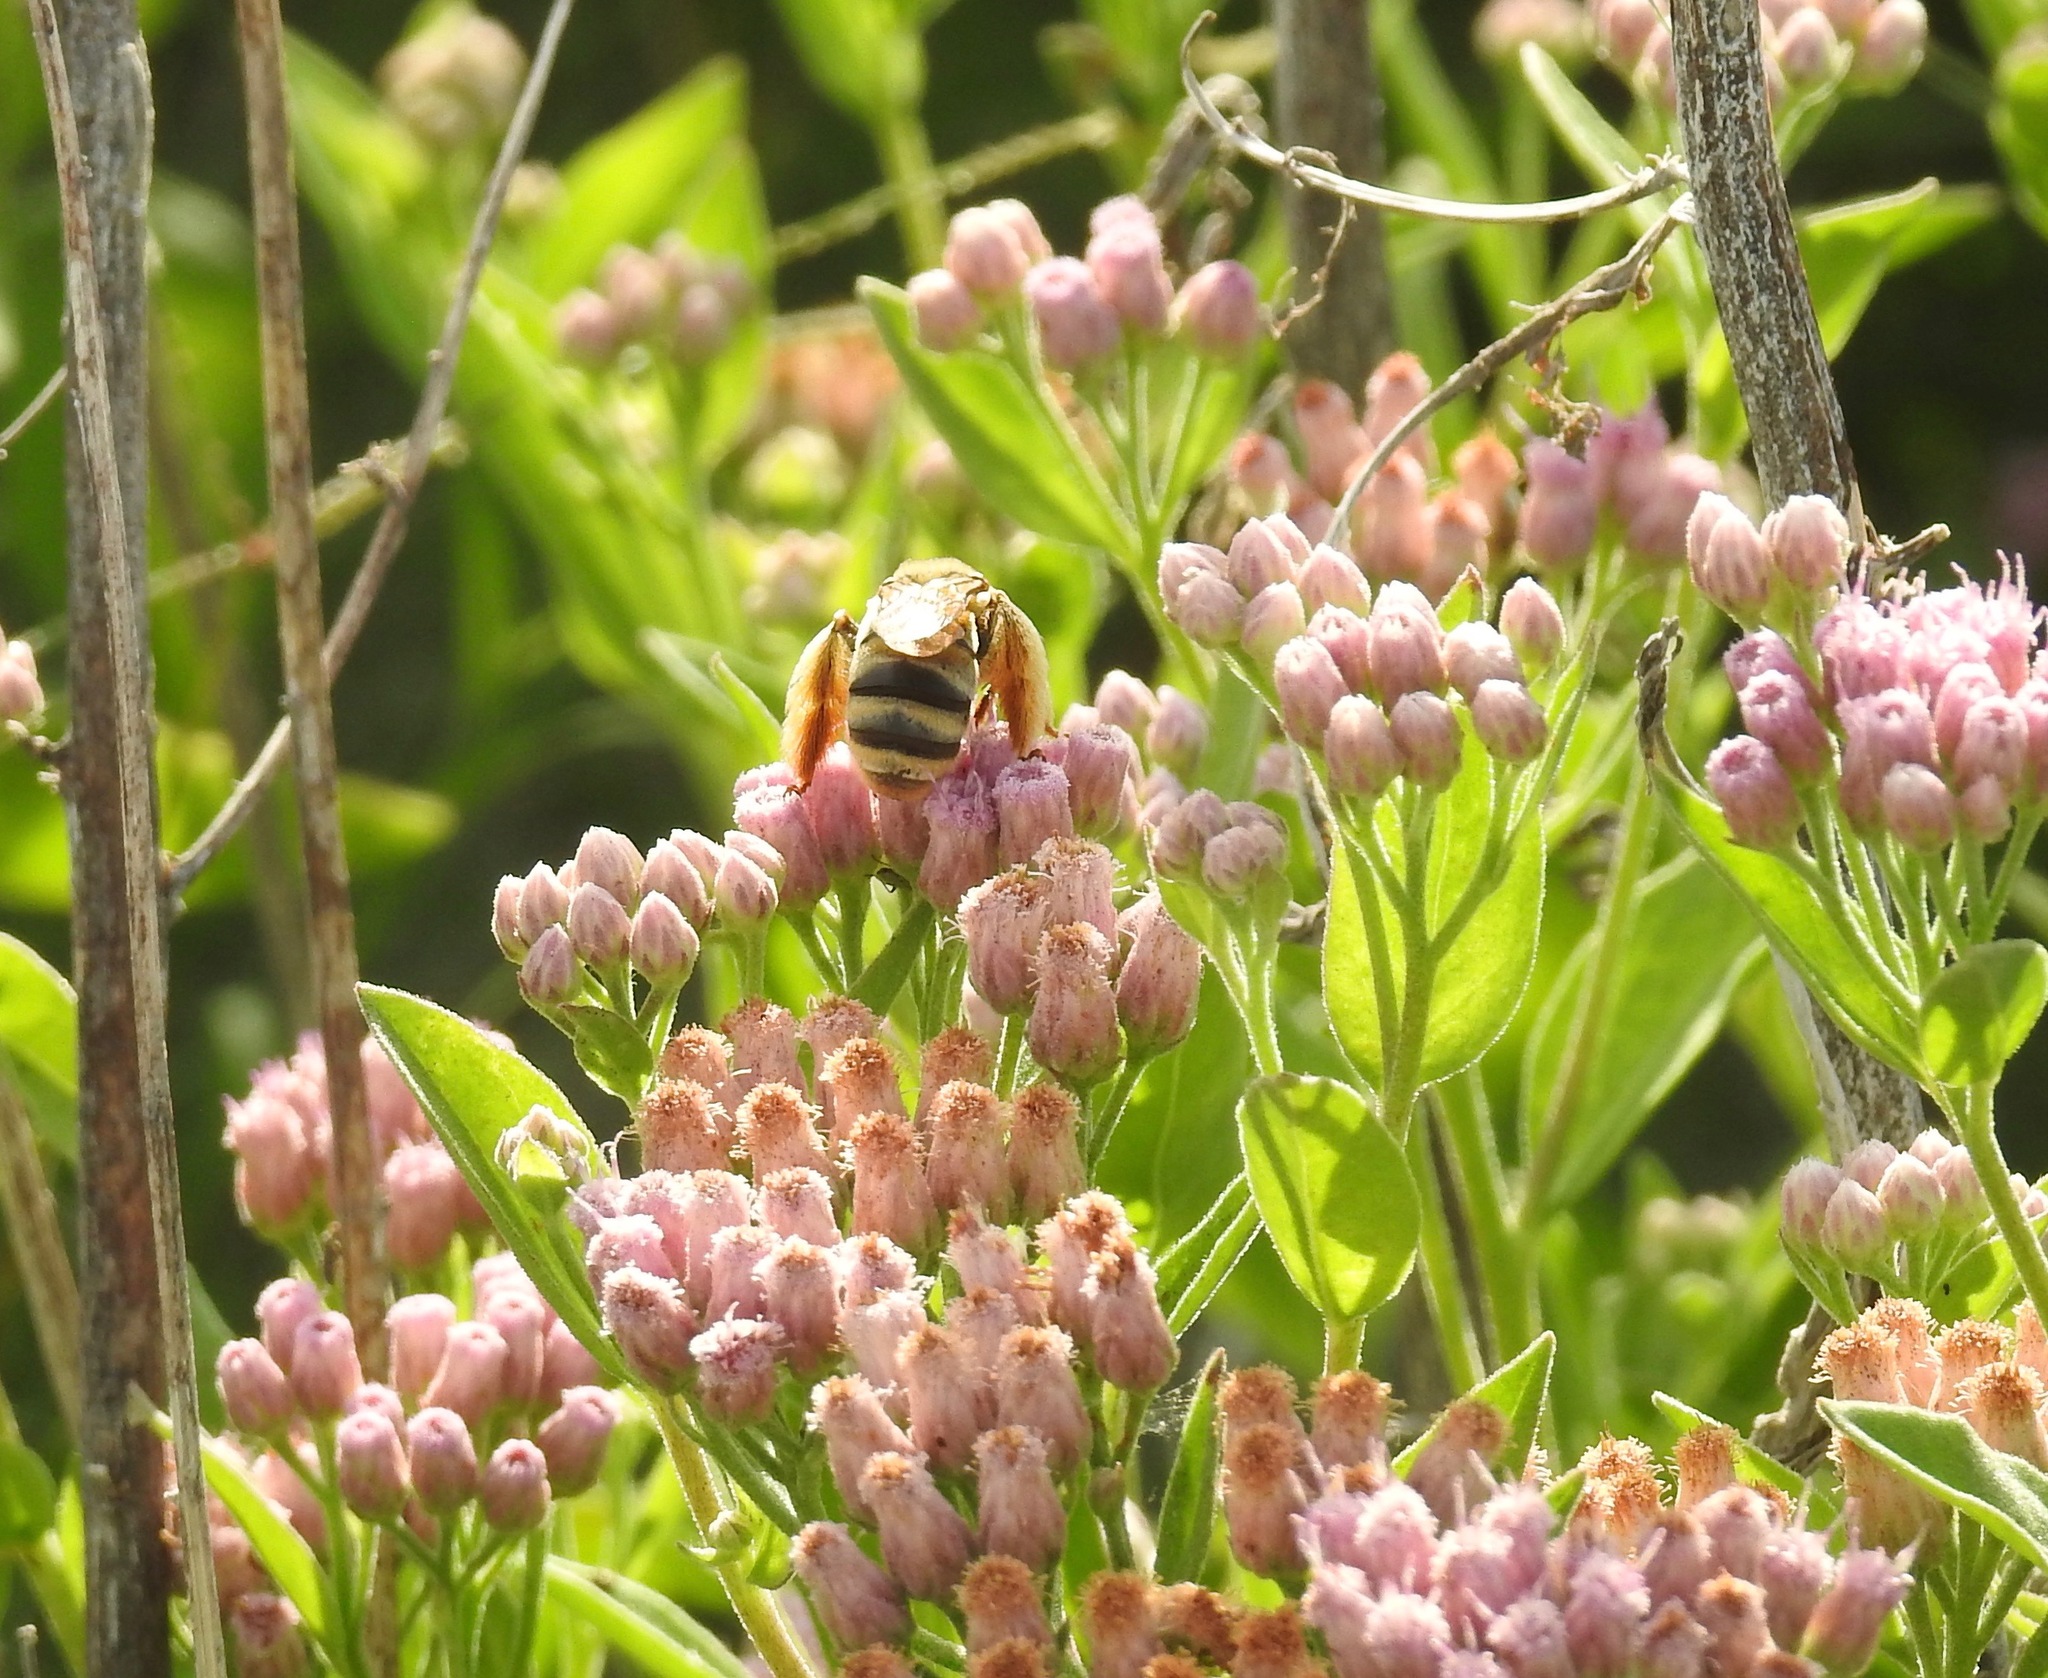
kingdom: Animalia
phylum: Arthropoda
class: Insecta
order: Hymenoptera
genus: Epimelissodes
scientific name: Epimelissodes
